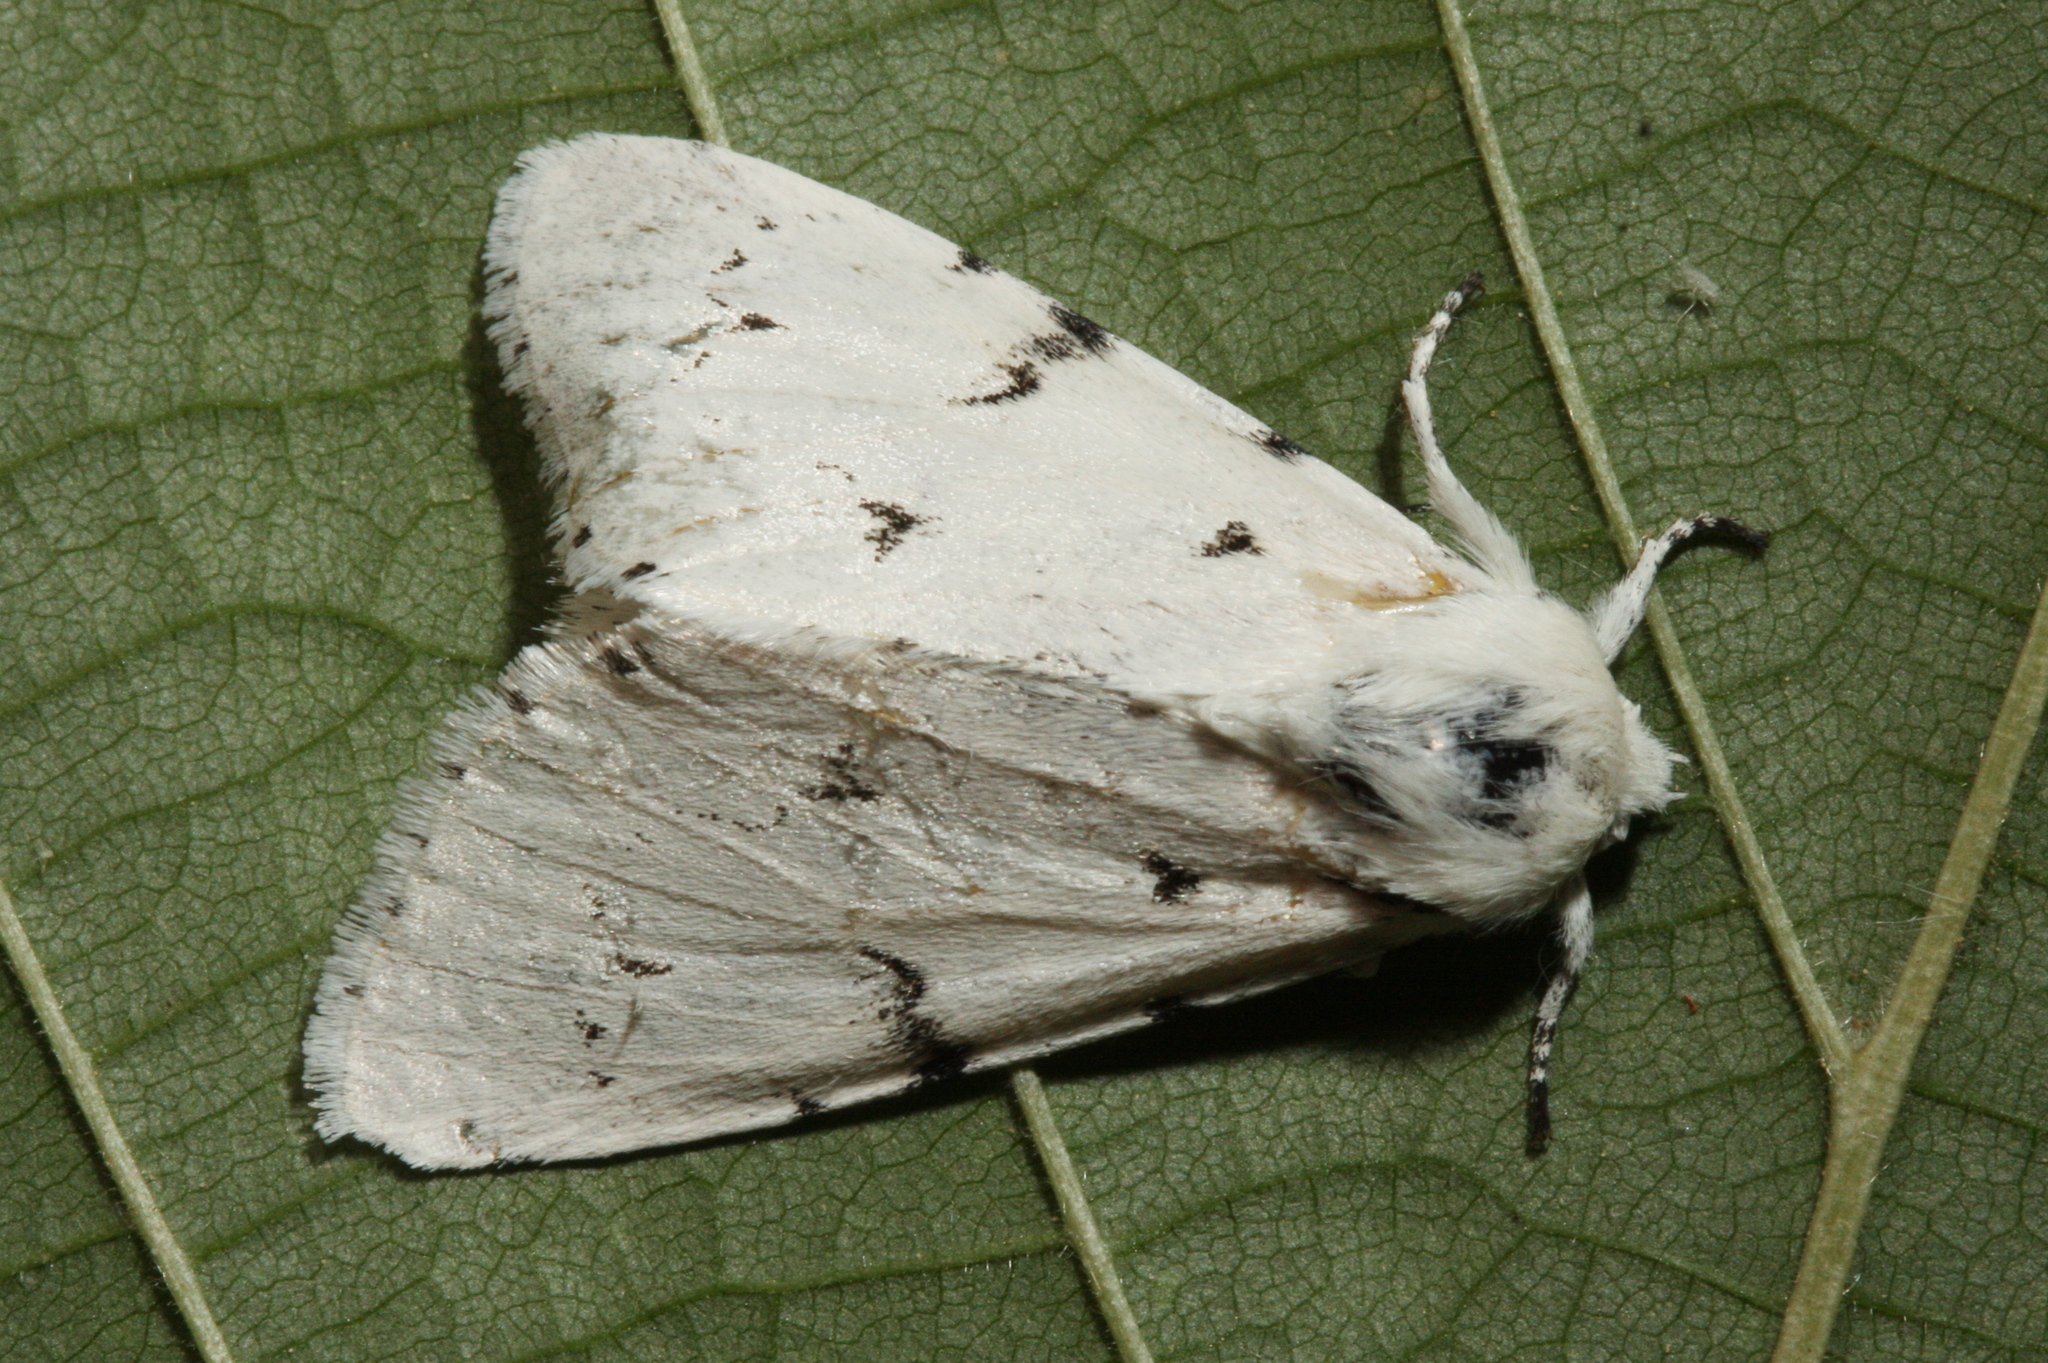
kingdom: Animalia
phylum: Arthropoda
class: Insecta
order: Lepidoptera
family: Noctuidae
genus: Acronicta
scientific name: Acronicta leporina
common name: Miller
